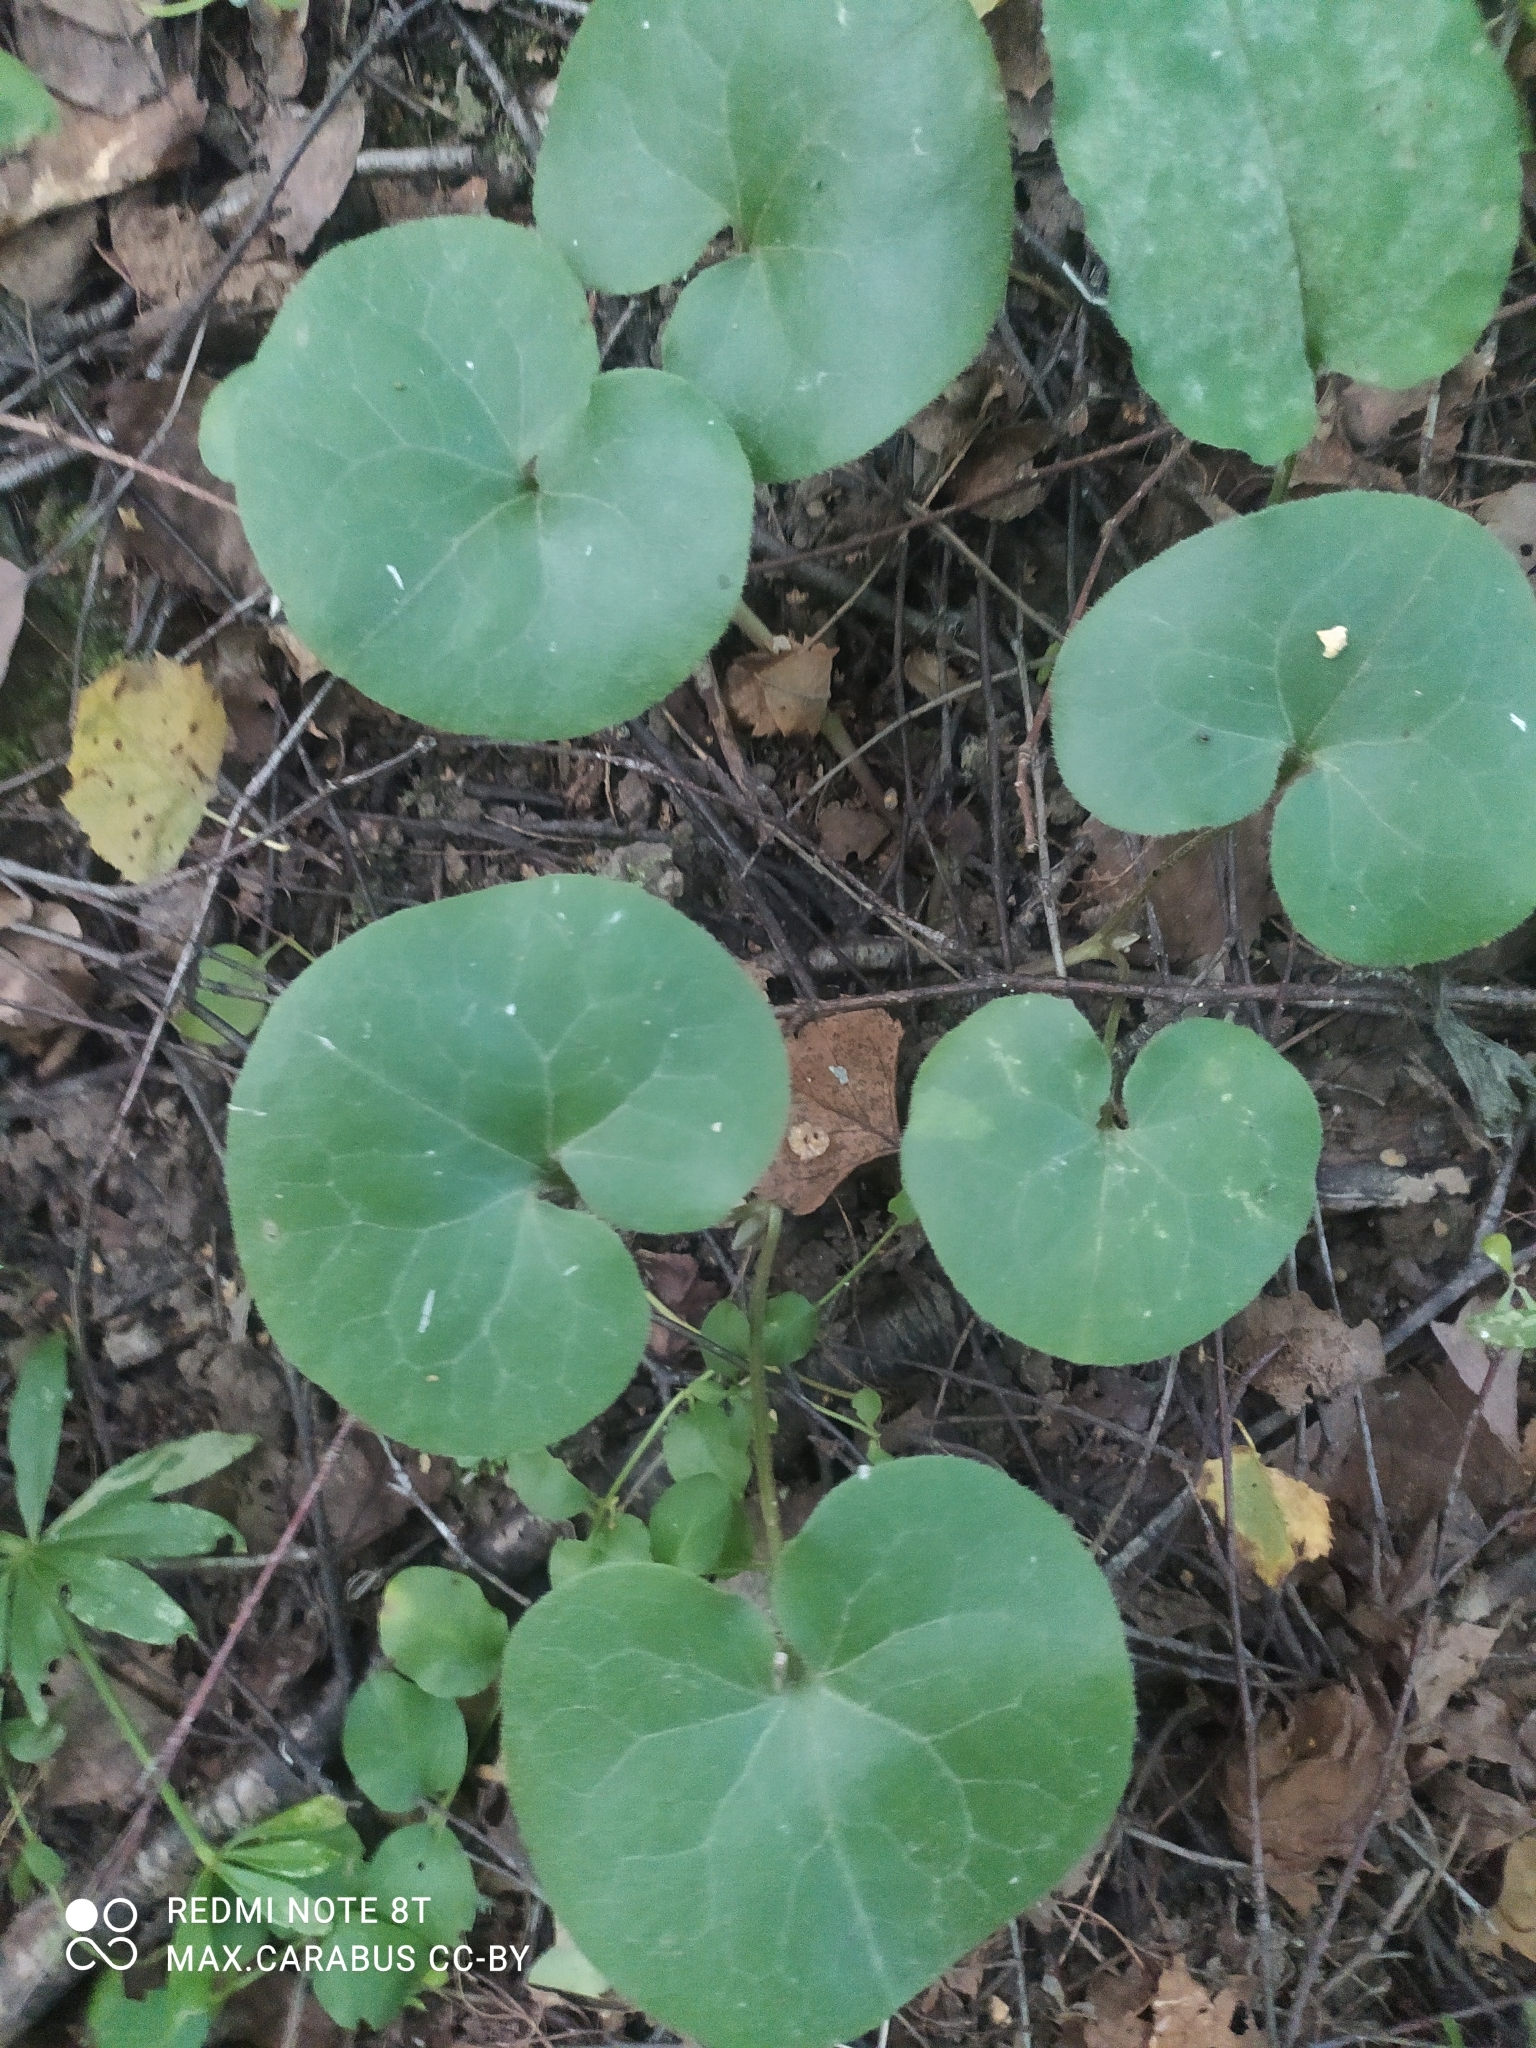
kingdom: Plantae
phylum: Tracheophyta
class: Magnoliopsida
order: Piperales
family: Aristolochiaceae
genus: Asarum
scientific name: Asarum europaeum
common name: Asarabacca
